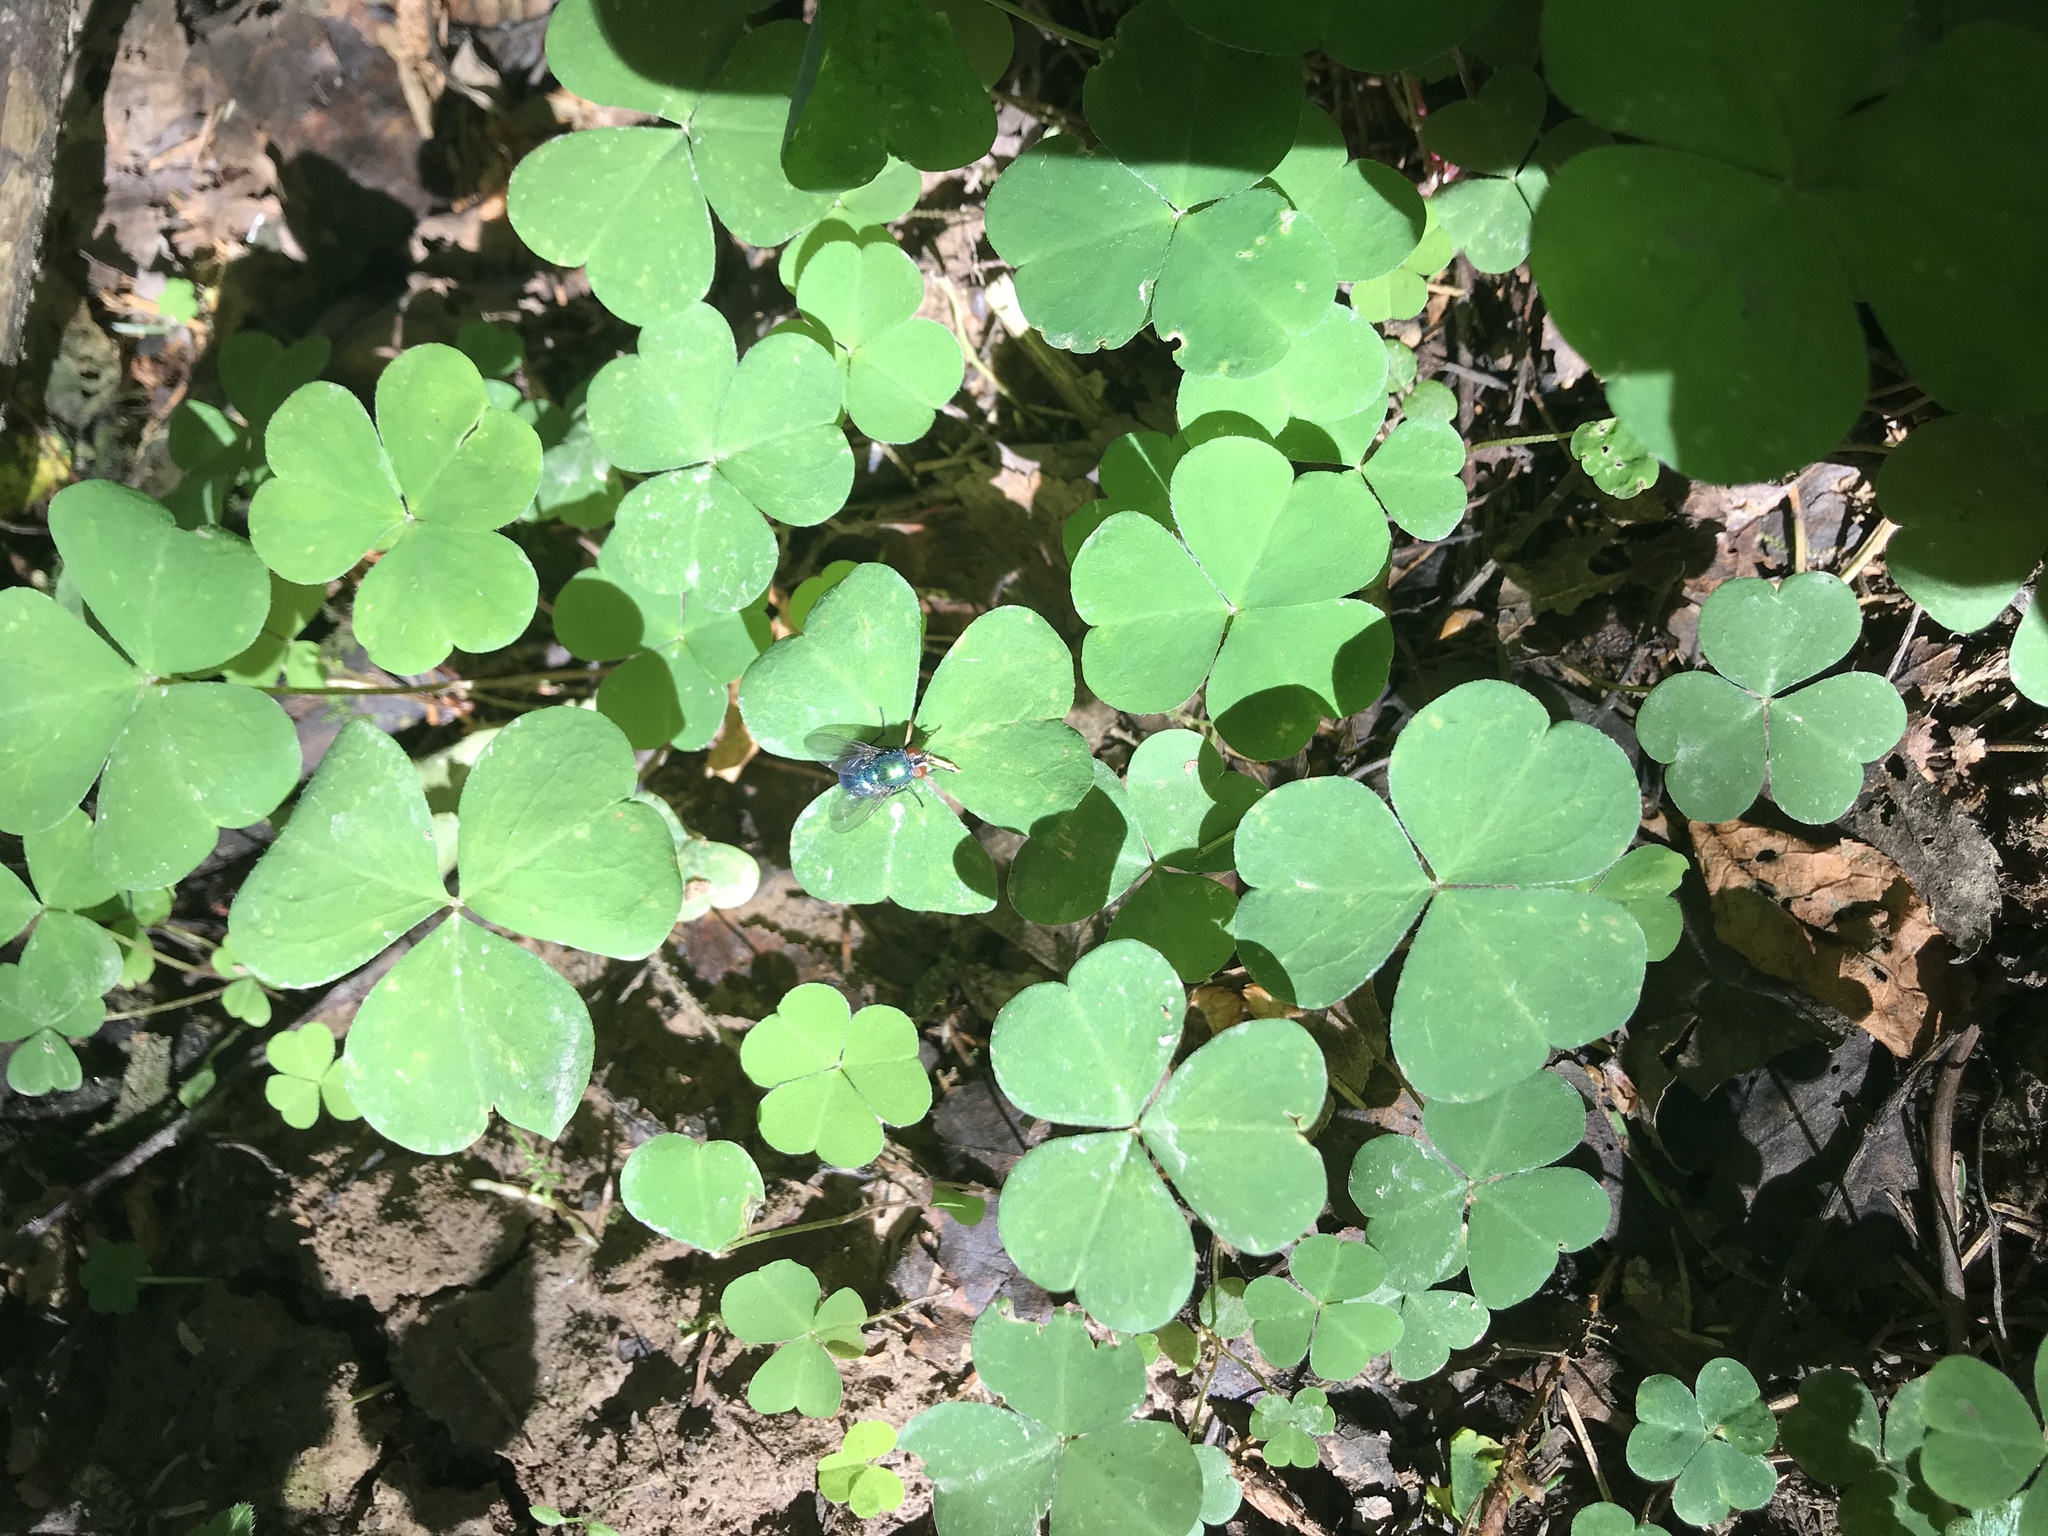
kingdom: Plantae
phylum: Tracheophyta
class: Magnoliopsida
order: Oxalidales
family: Oxalidaceae
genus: Oxalis
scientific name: Oxalis acetosella
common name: Wood-sorrel
